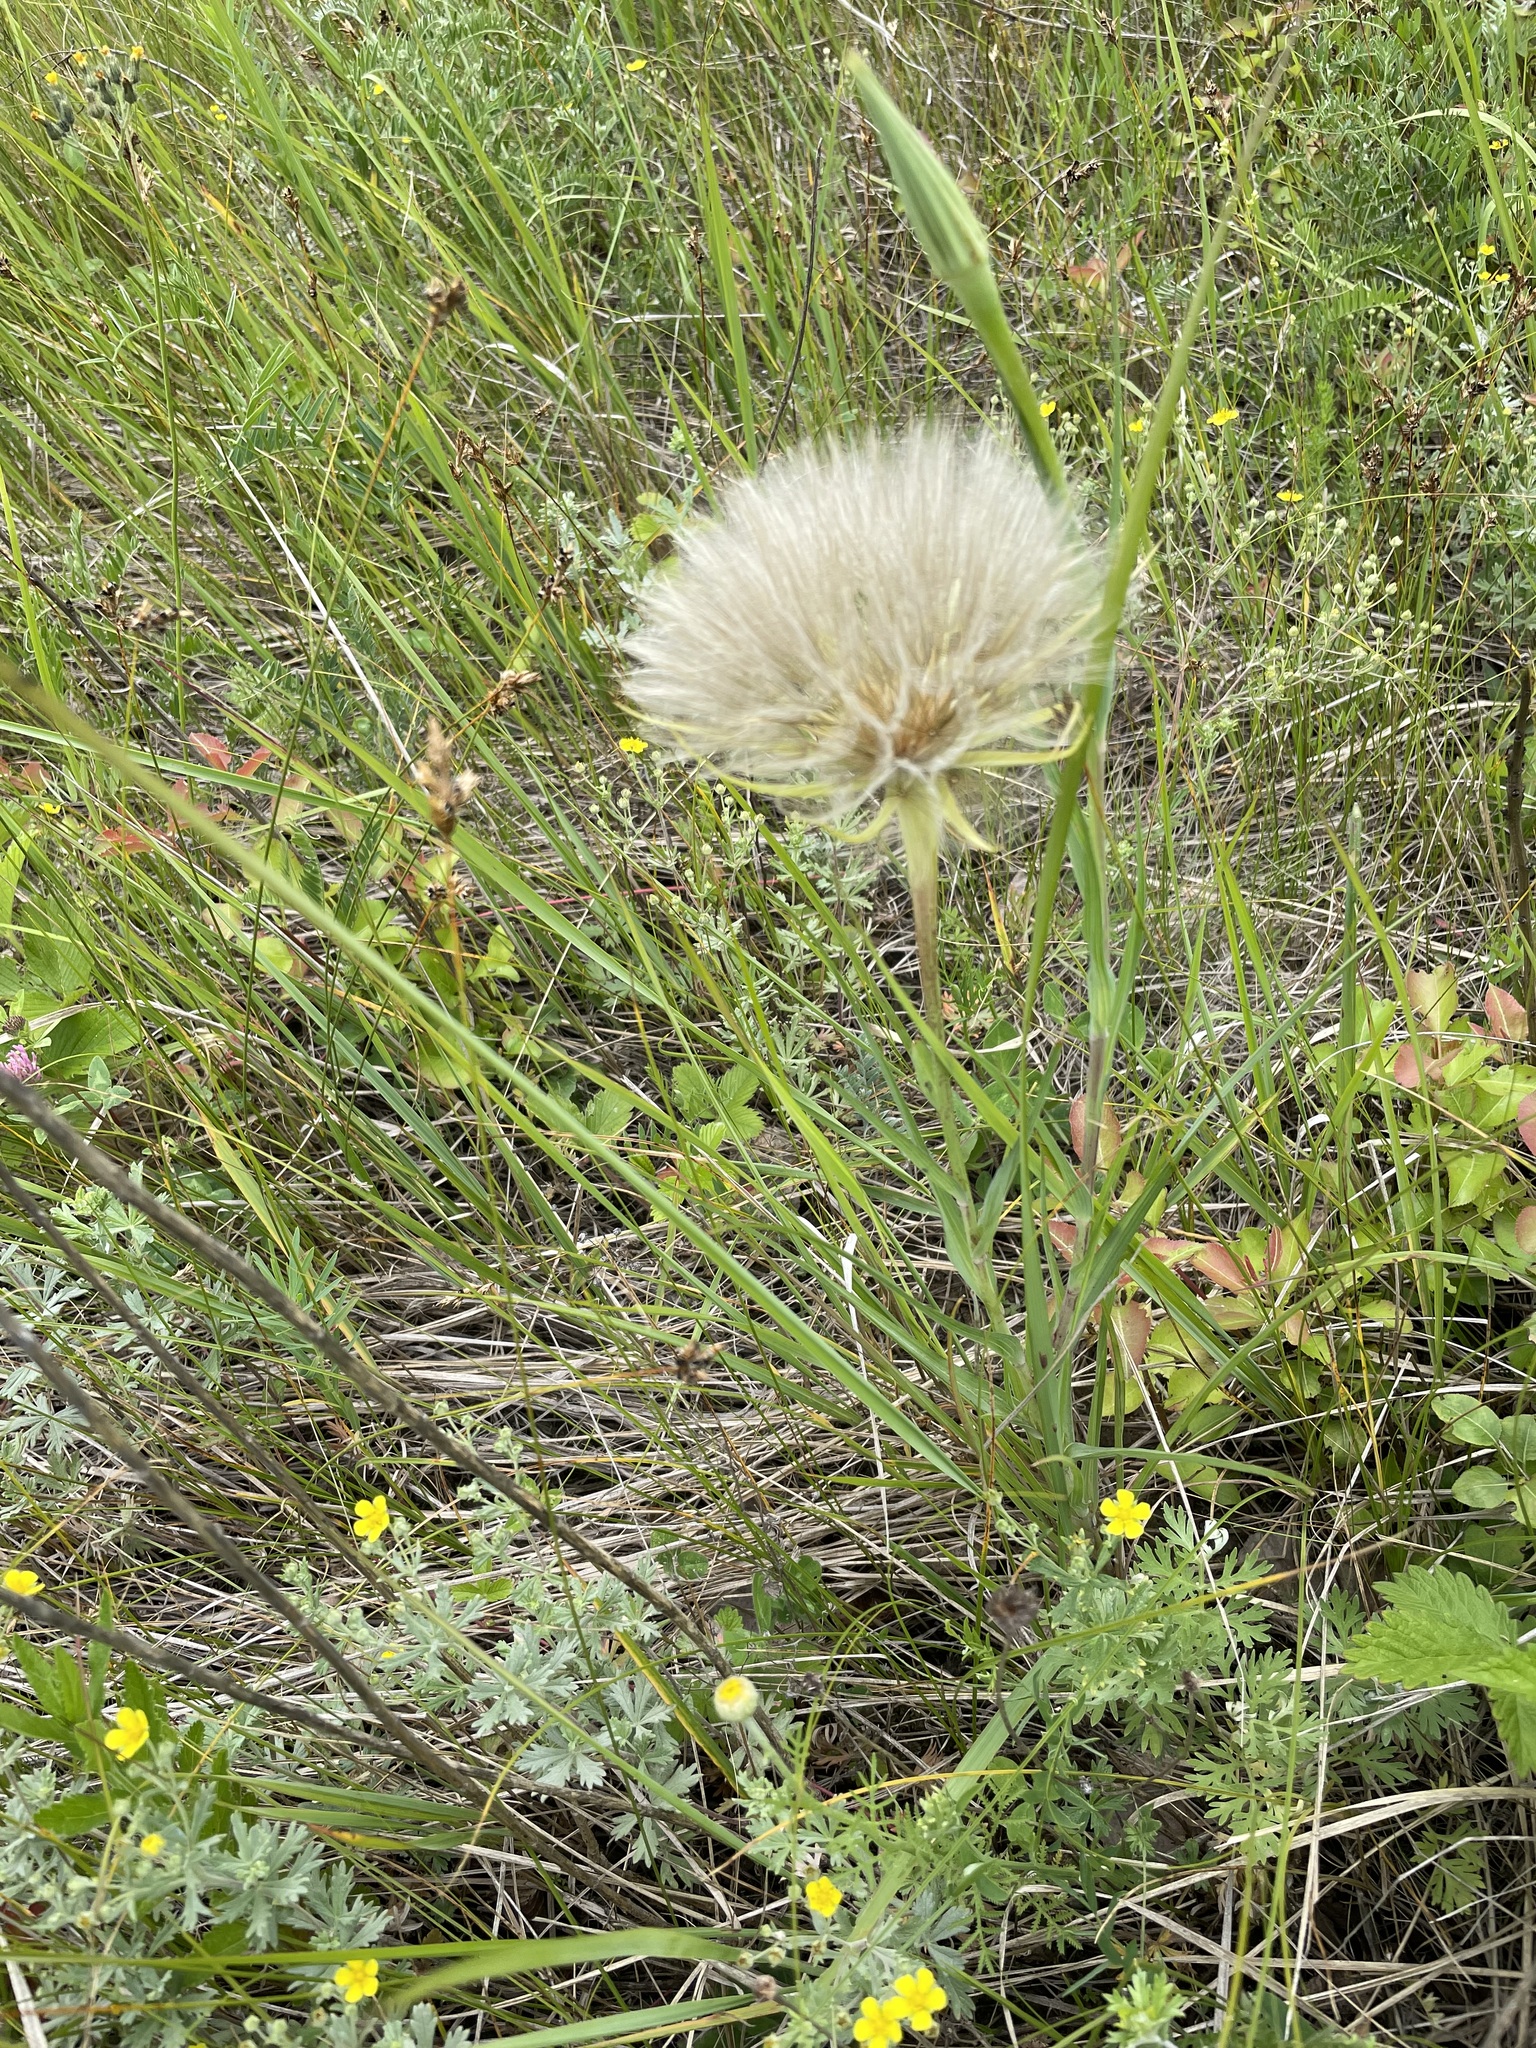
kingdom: Plantae
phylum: Tracheophyta
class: Magnoliopsida
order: Asterales
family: Asteraceae
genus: Tragopogon
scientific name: Tragopogon dubius
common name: Yellow salsify
